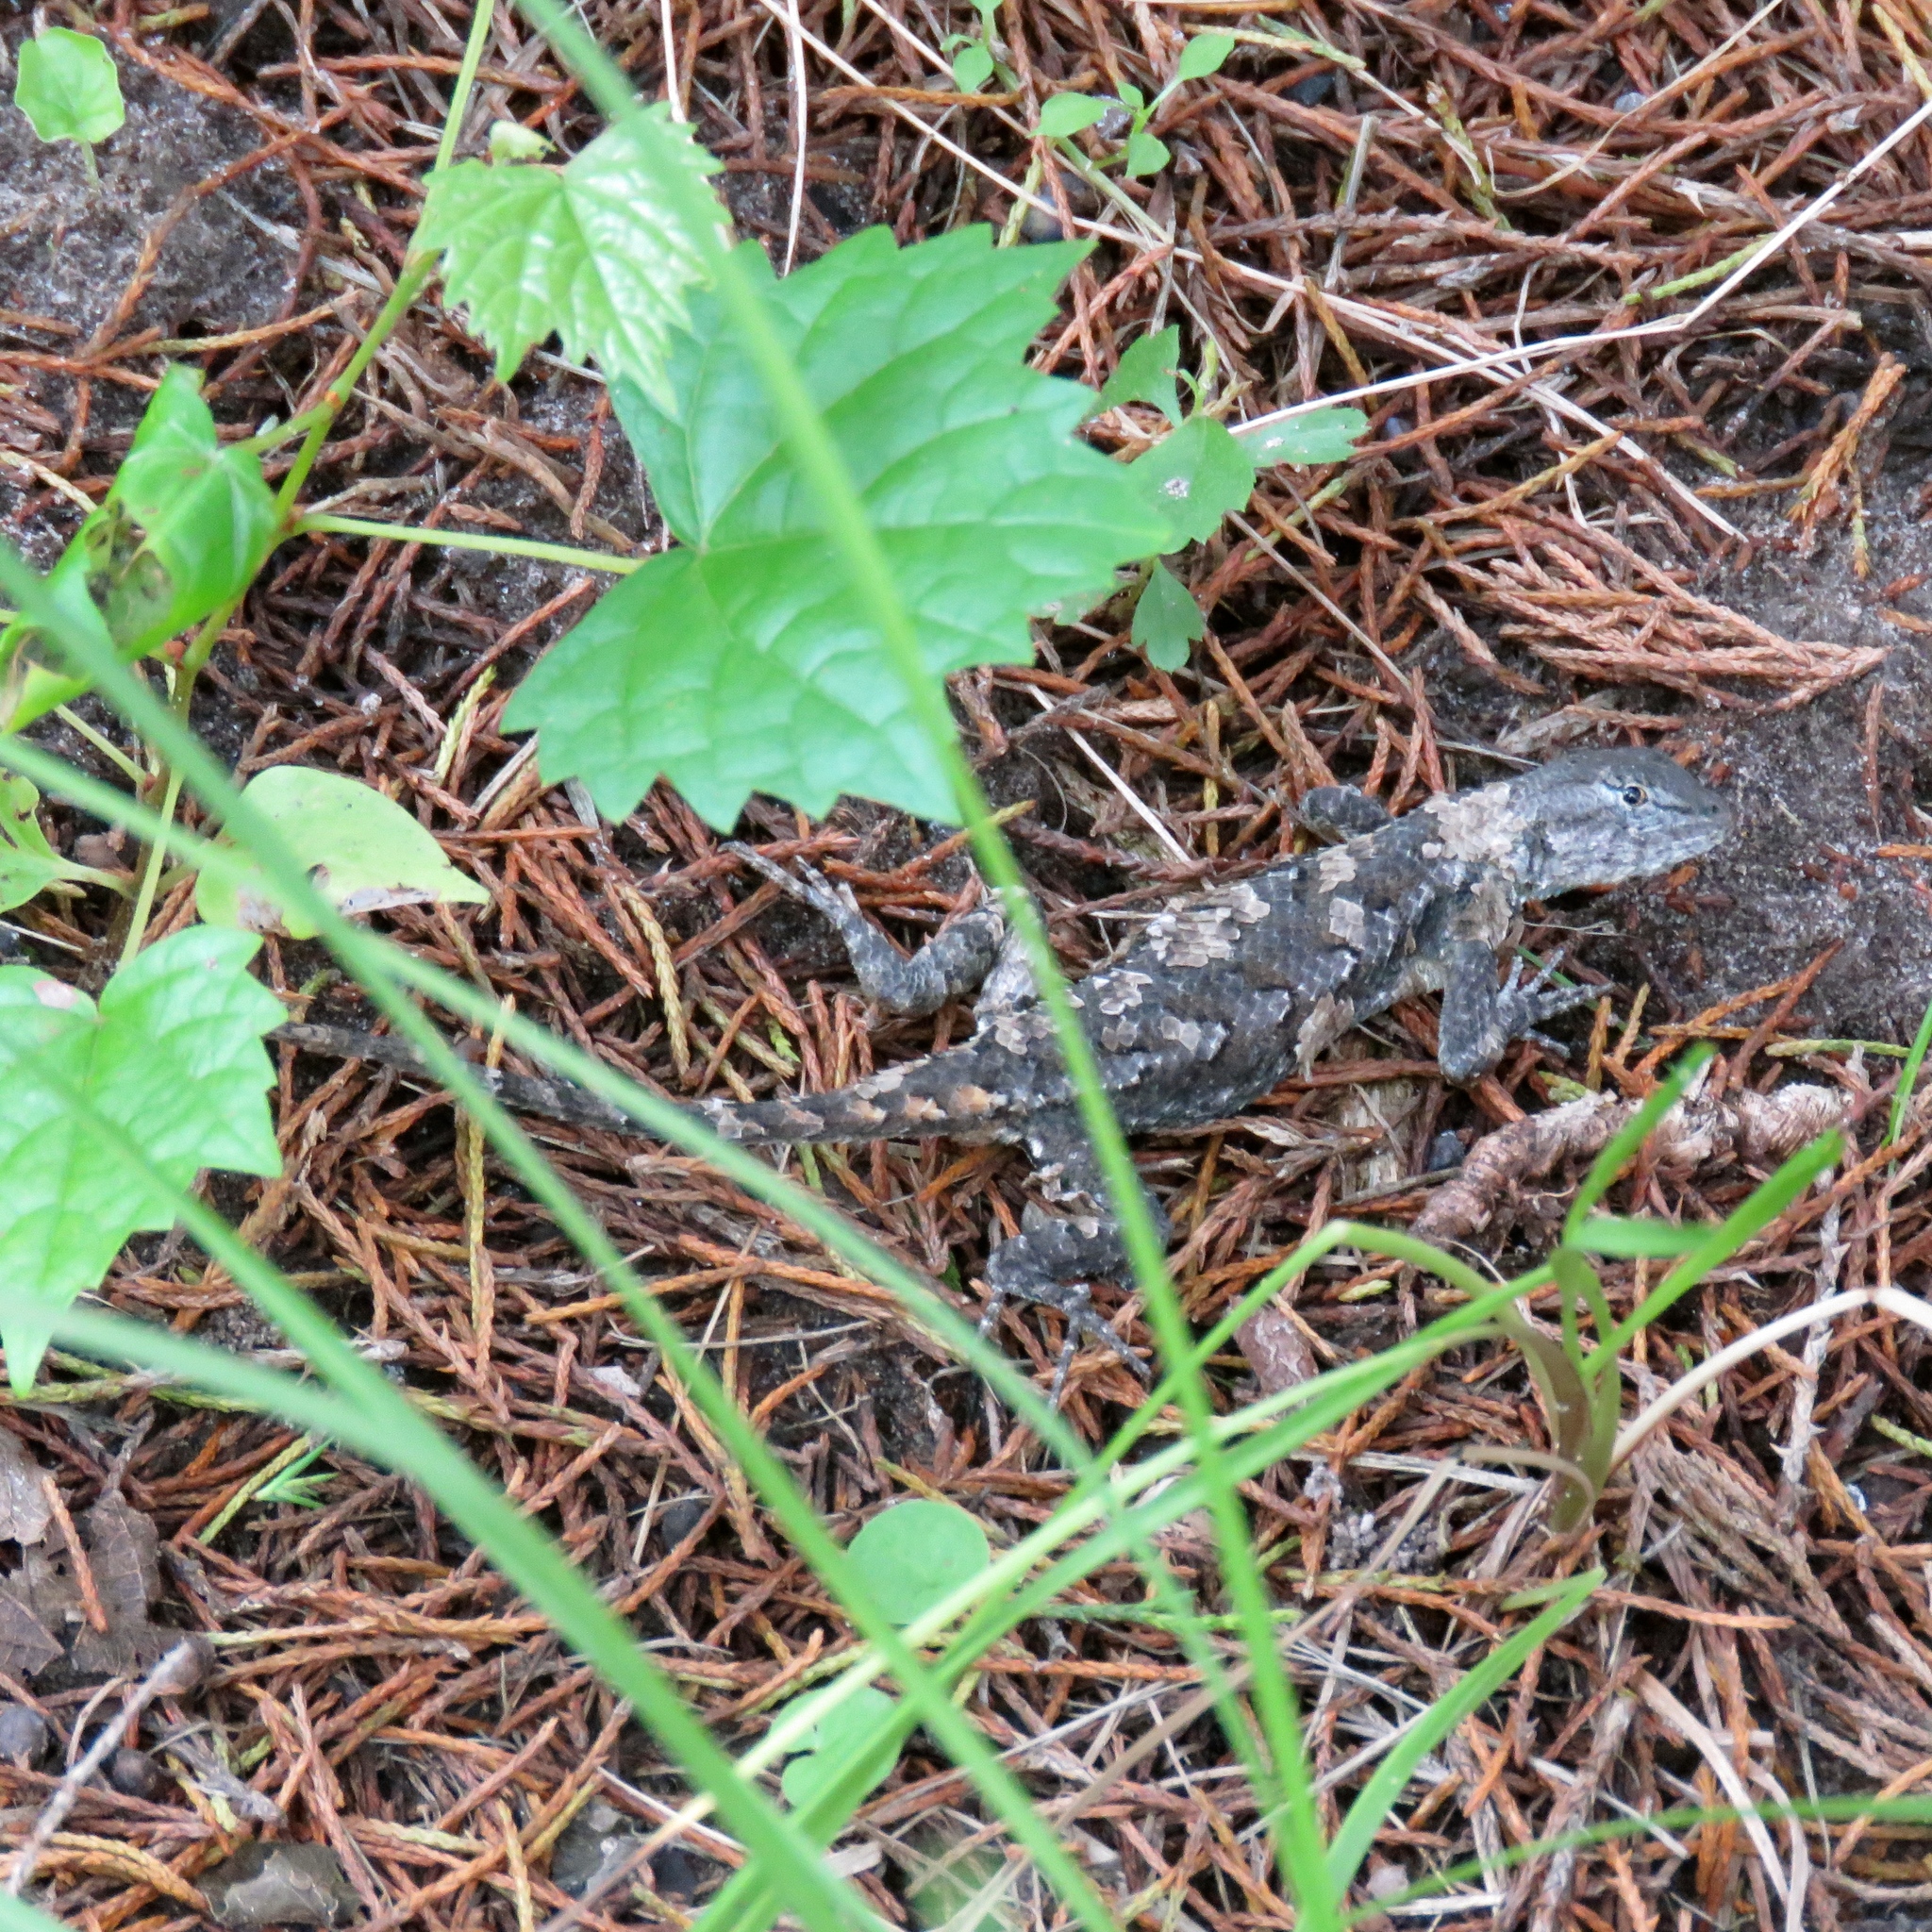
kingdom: Animalia
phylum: Chordata
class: Squamata
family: Phrynosomatidae
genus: Sceloporus
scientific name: Sceloporus consobrinus
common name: Southern prairie lizard
